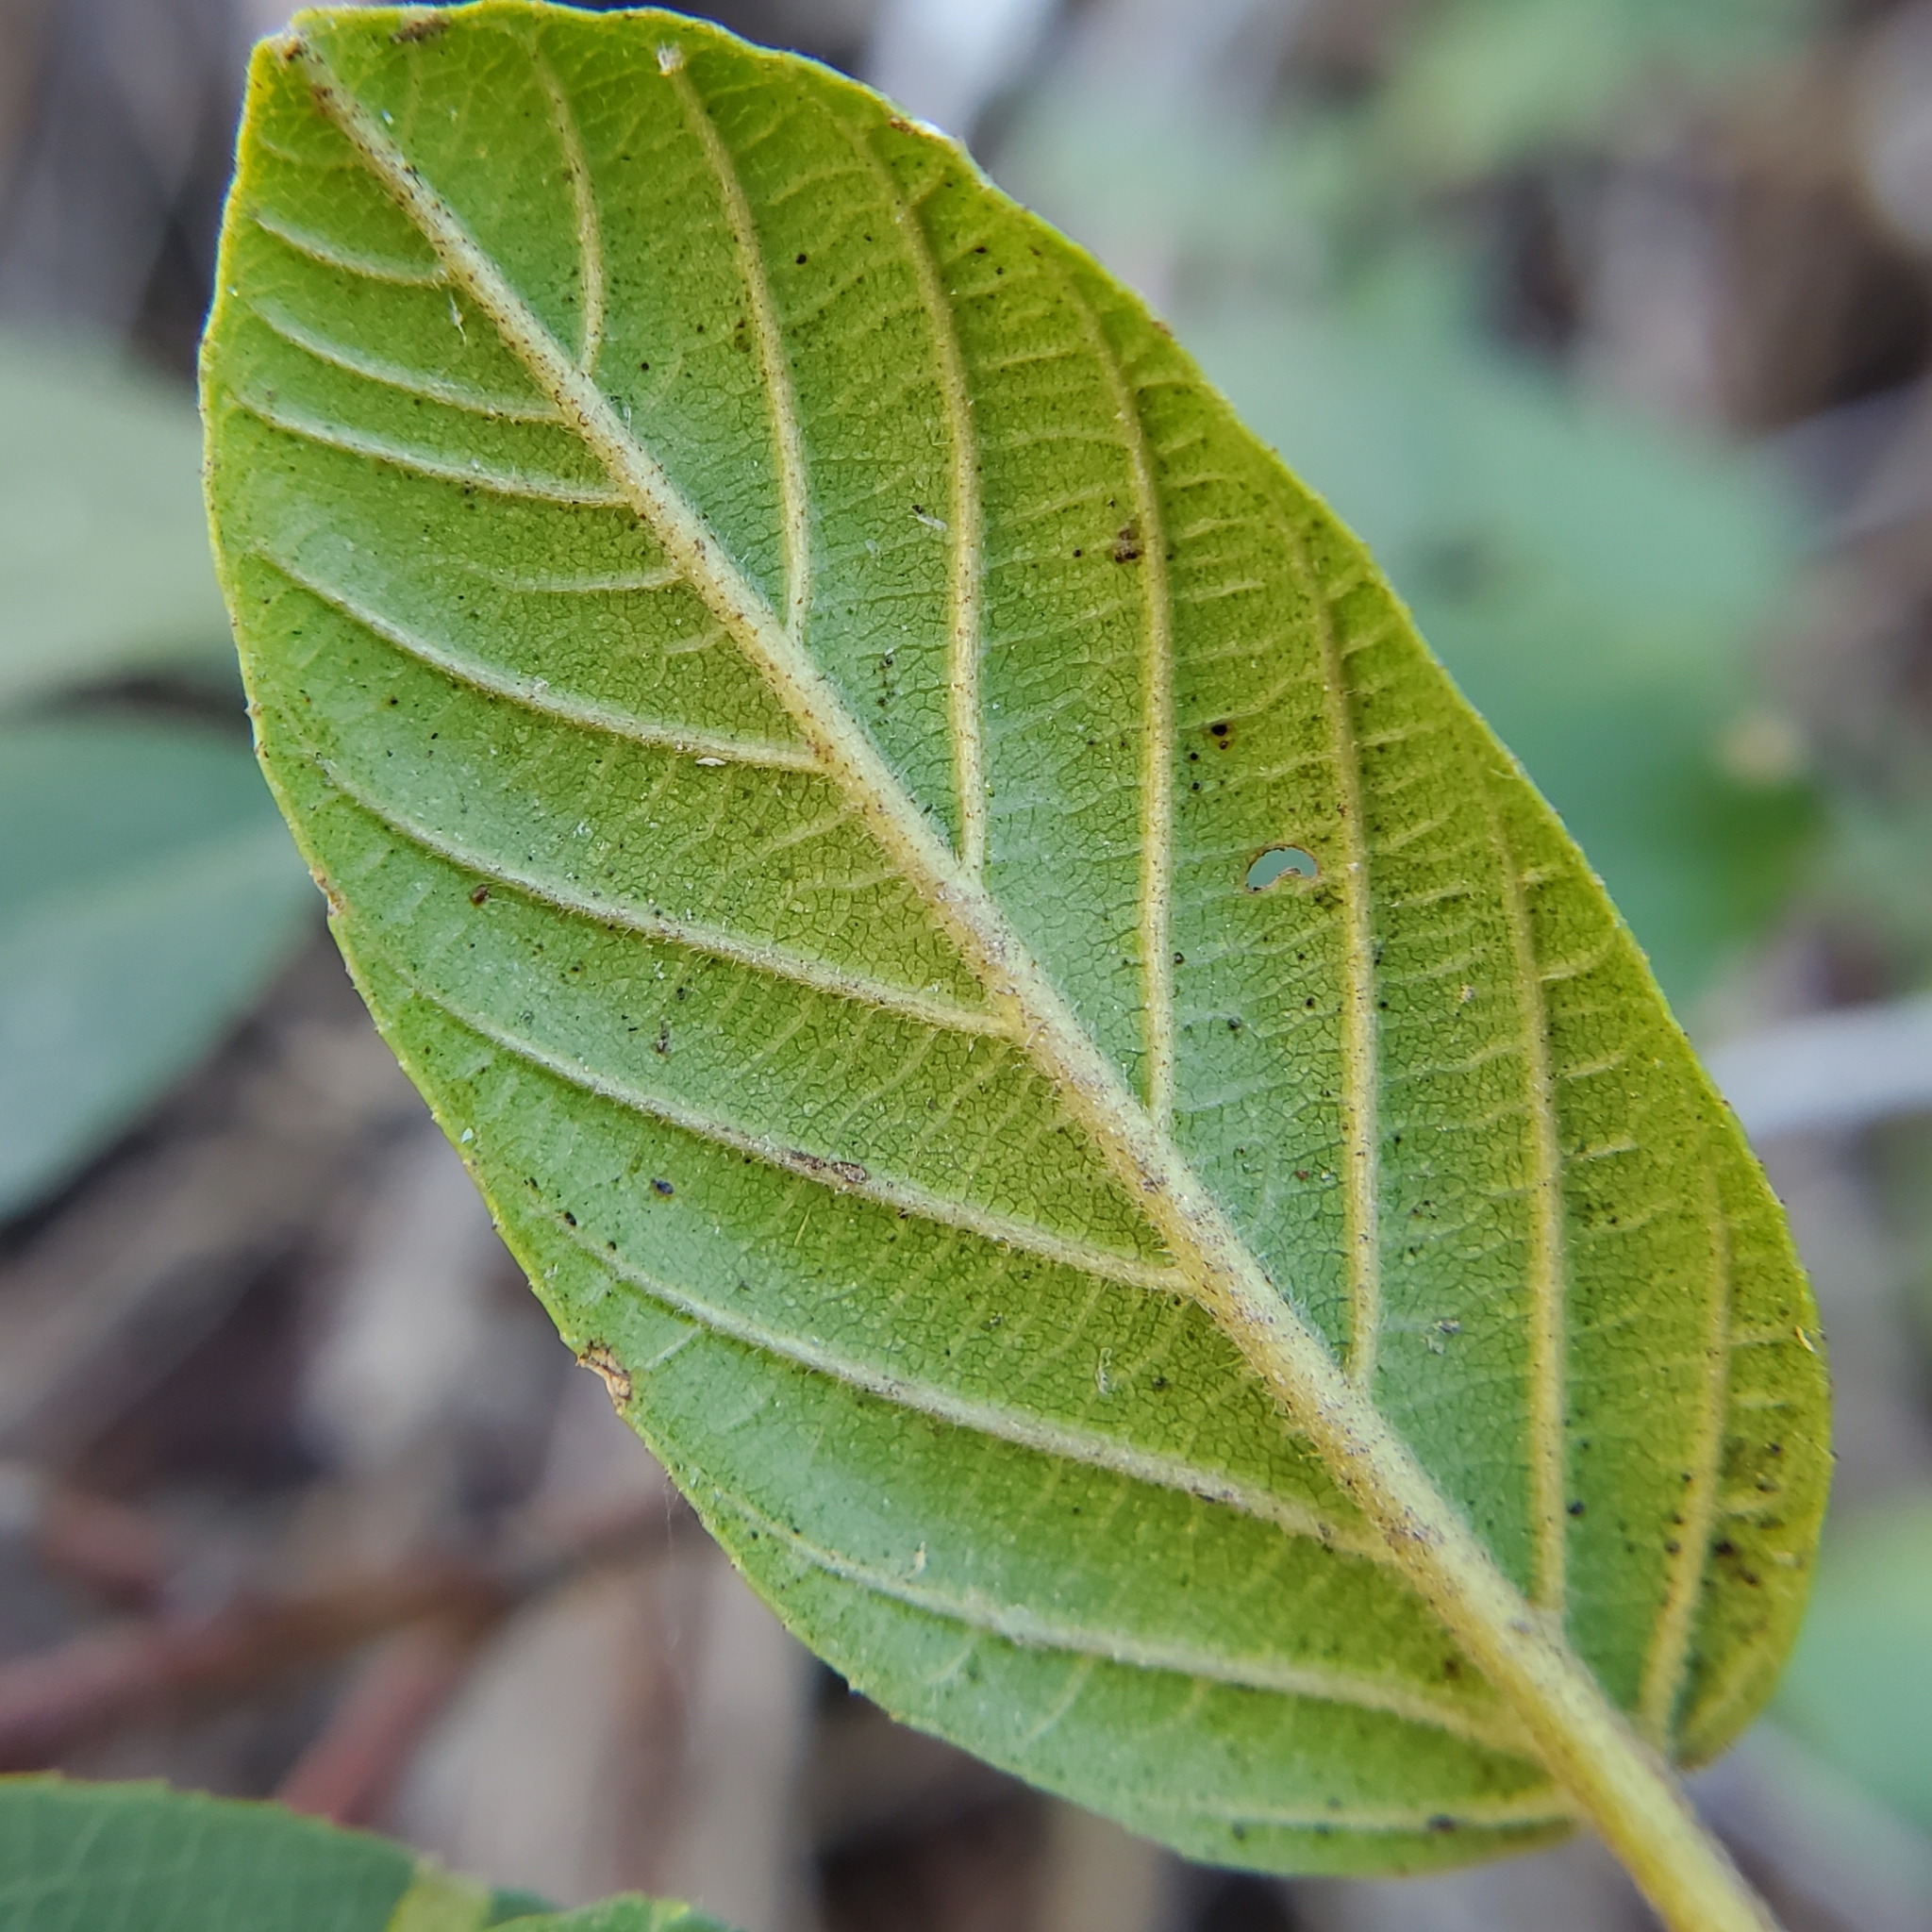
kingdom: Plantae
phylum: Tracheophyta
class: Magnoliopsida
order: Rosales
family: Rhamnaceae
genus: Frangula
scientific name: Frangula californica
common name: California buckthorn
